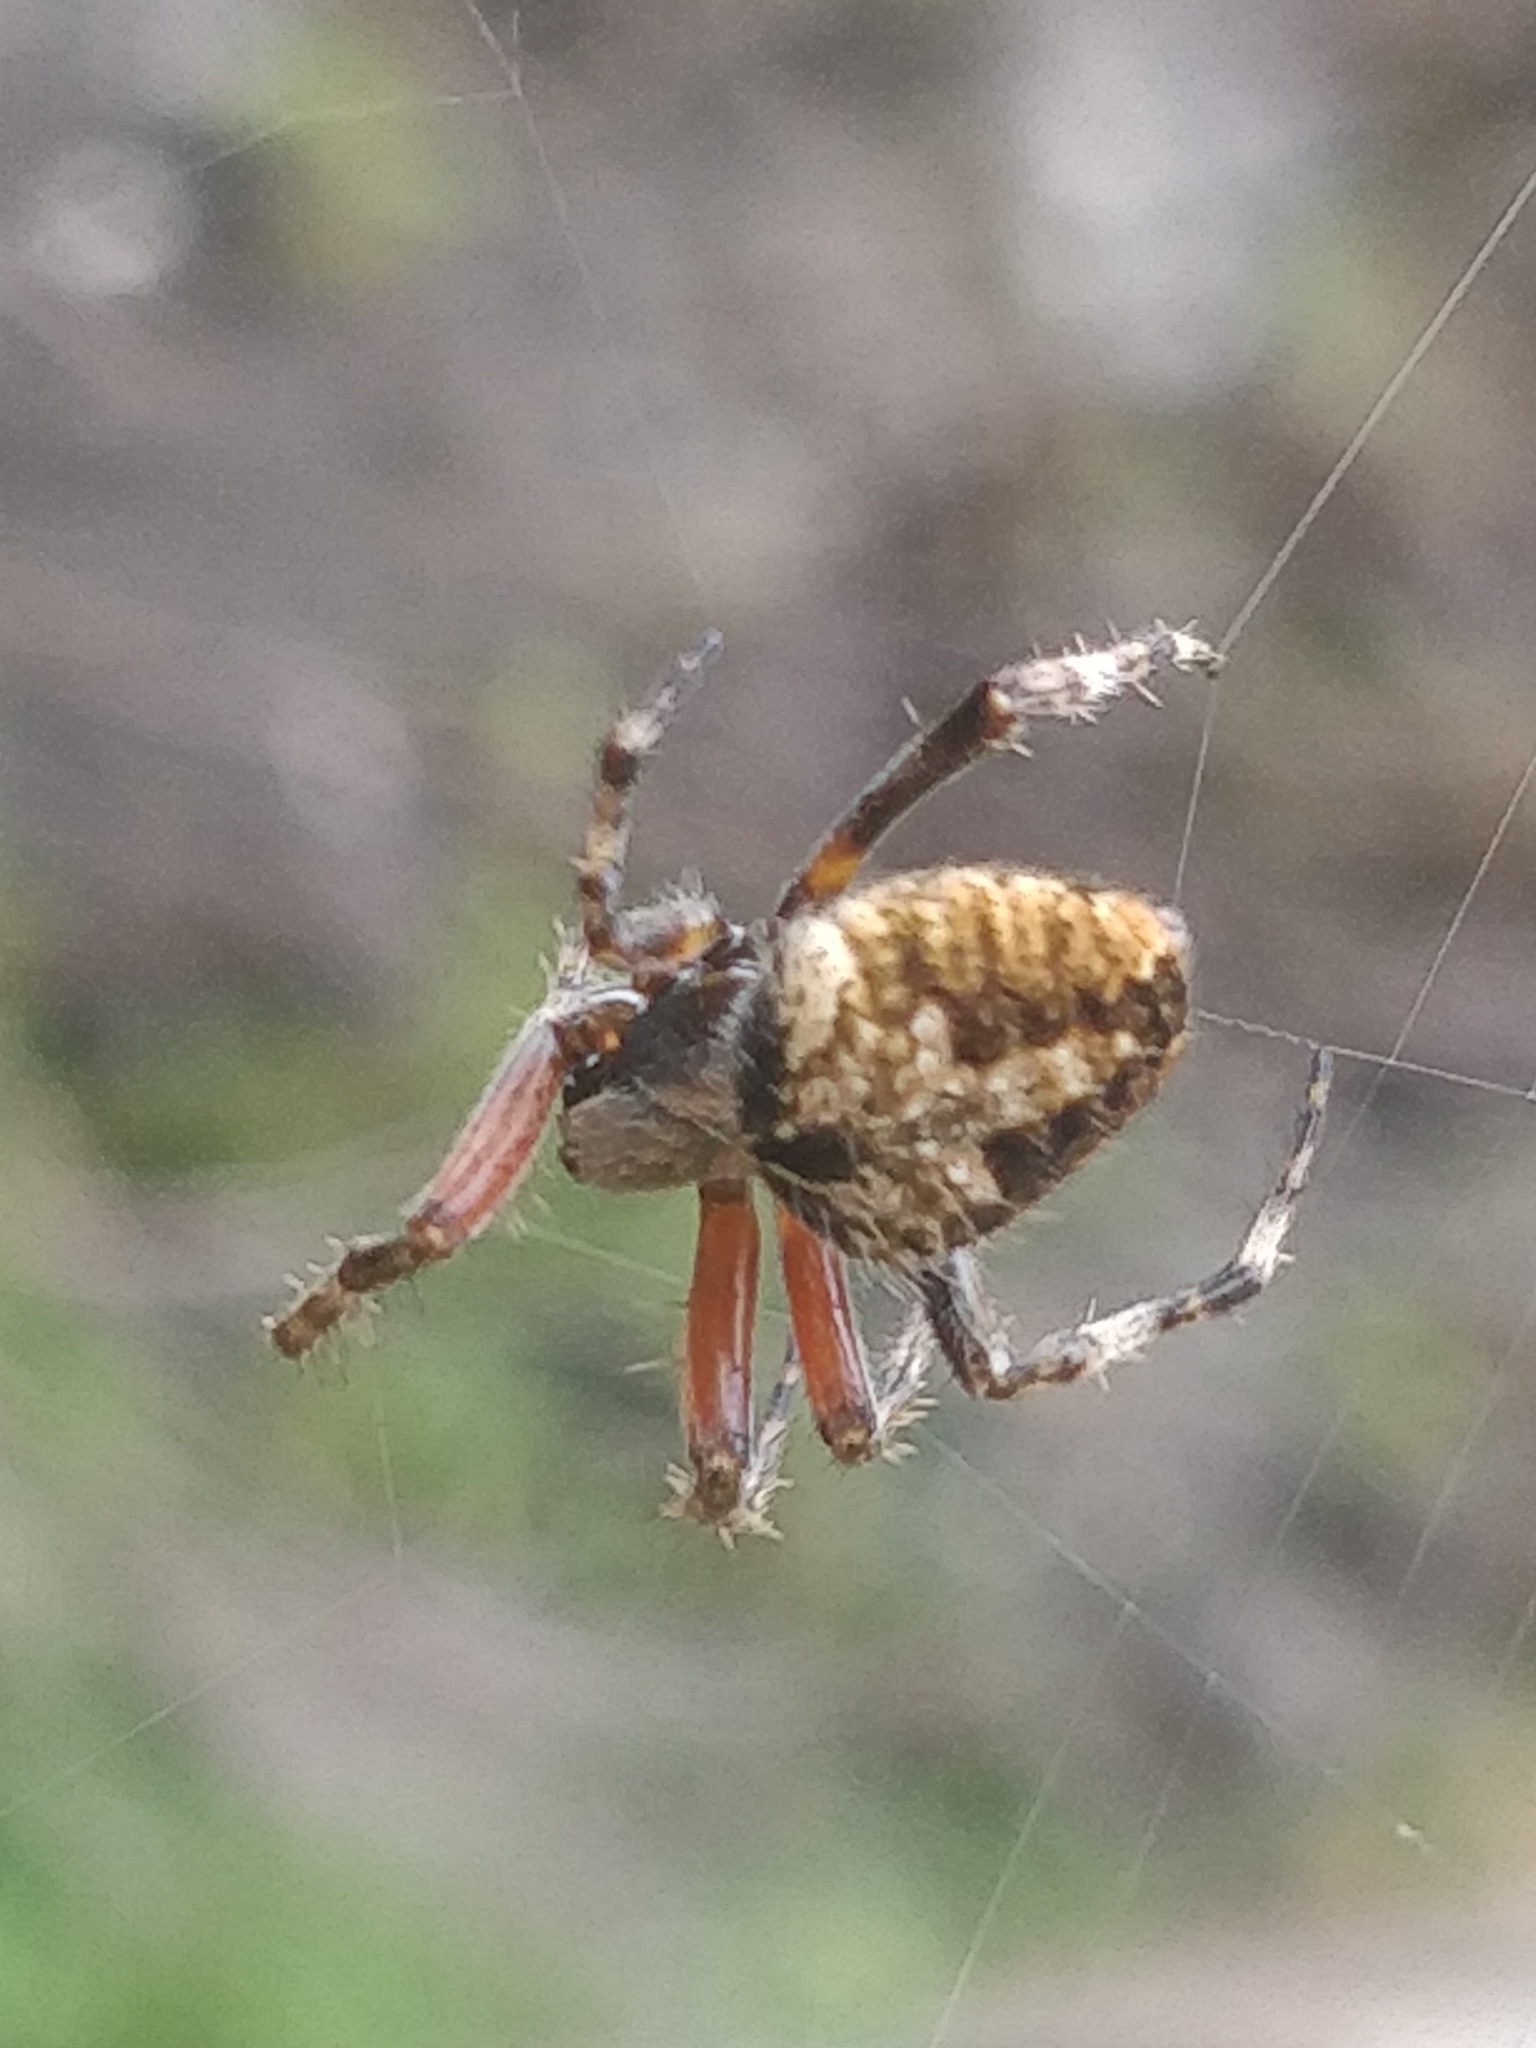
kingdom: Animalia
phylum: Arthropoda
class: Arachnida
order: Araneae
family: Araneidae
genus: Neoscona
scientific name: Neoscona crucifera
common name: Spotted orbweaver
